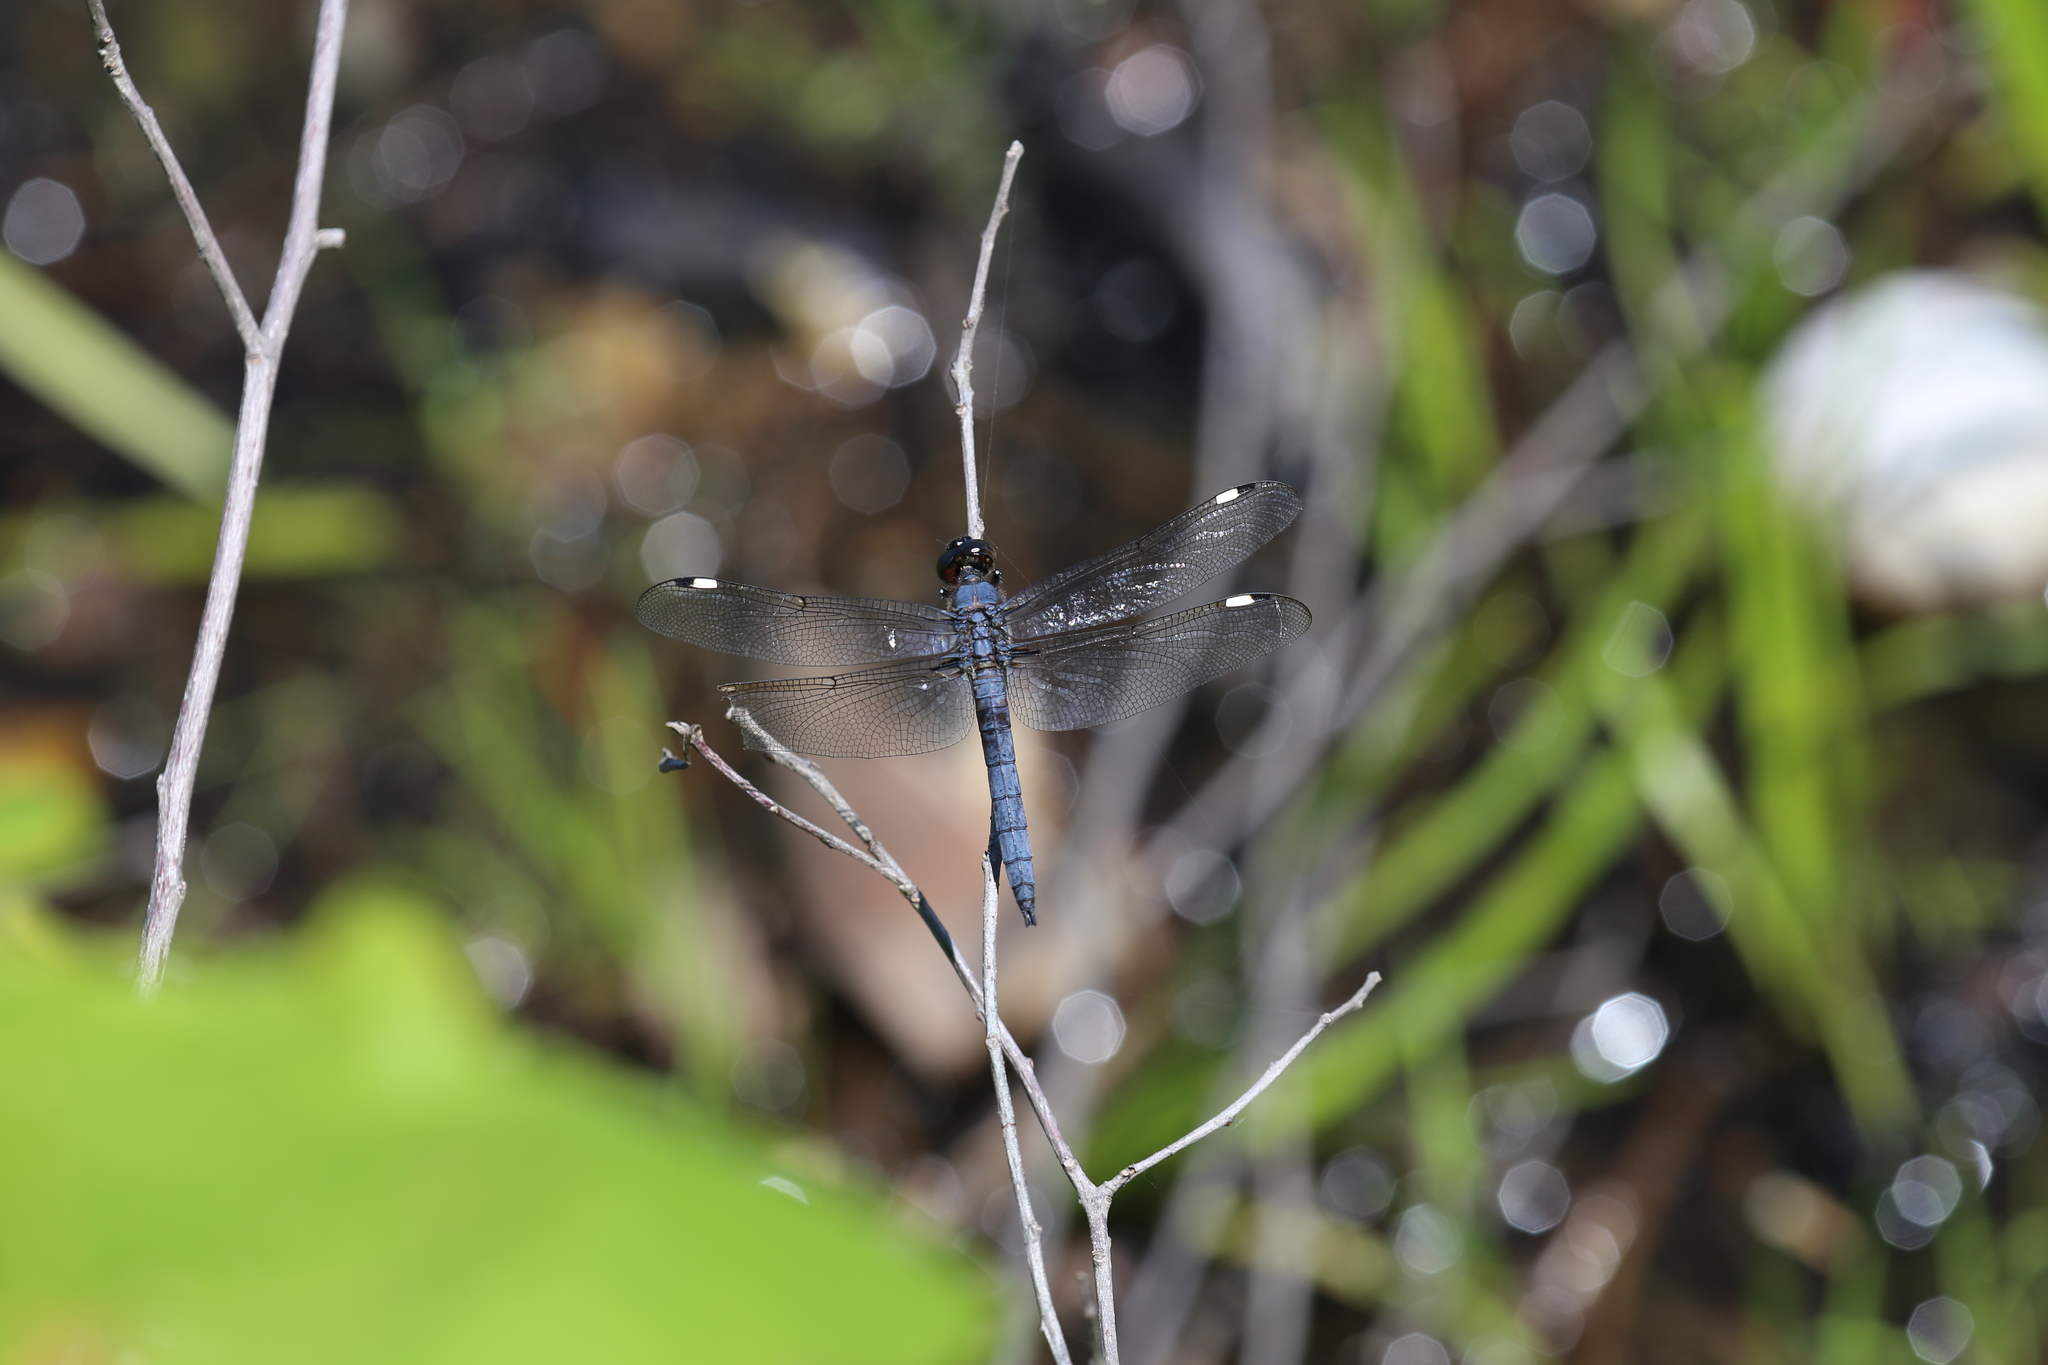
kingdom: Animalia
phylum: Arthropoda
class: Insecta
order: Odonata
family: Libellulidae
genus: Libellula
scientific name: Libellula cyanea
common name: Spangled skimmer
